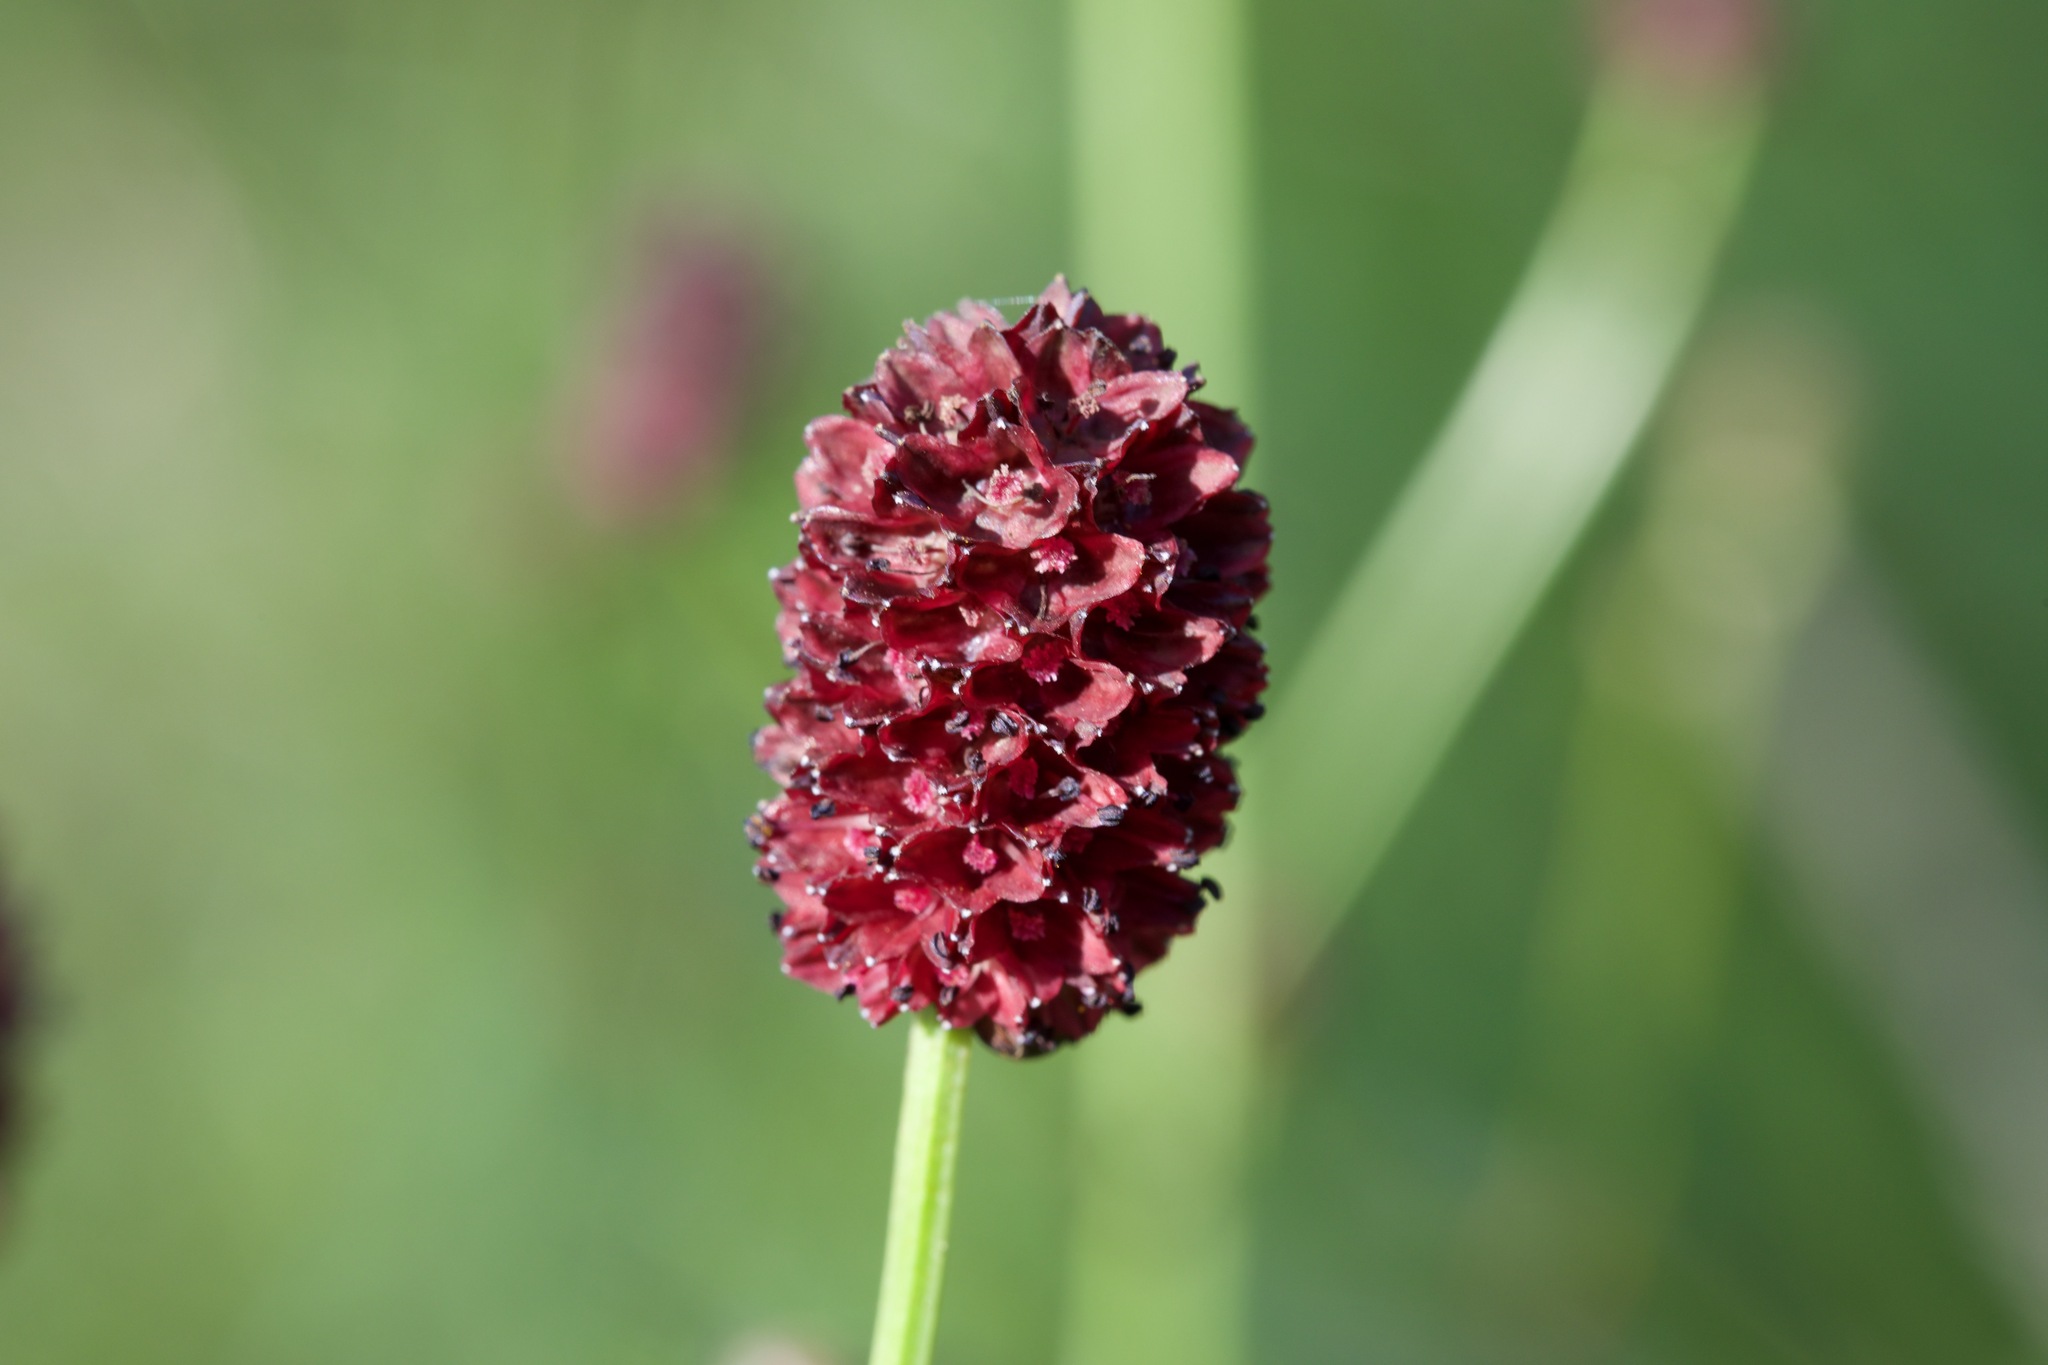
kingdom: Plantae
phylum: Tracheophyta
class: Magnoliopsida
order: Rosales
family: Rosaceae
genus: Sanguisorba
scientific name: Sanguisorba officinalis
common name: Great burnet
